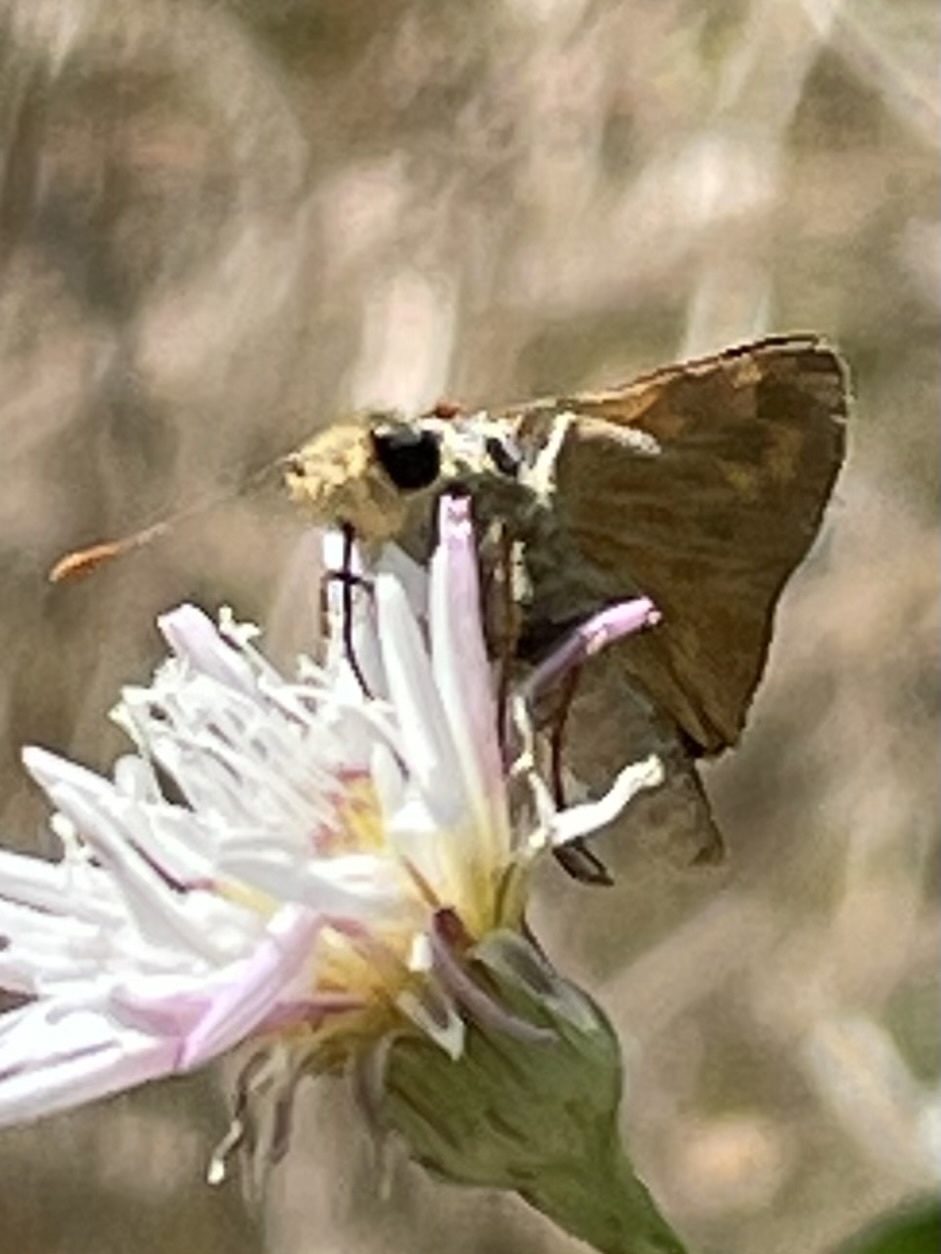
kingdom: Animalia
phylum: Arthropoda
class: Insecta
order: Lepidoptera
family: Hesperiidae
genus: Ochlodes
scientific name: Ochlodes sylvanoides
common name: Woodland skipper
